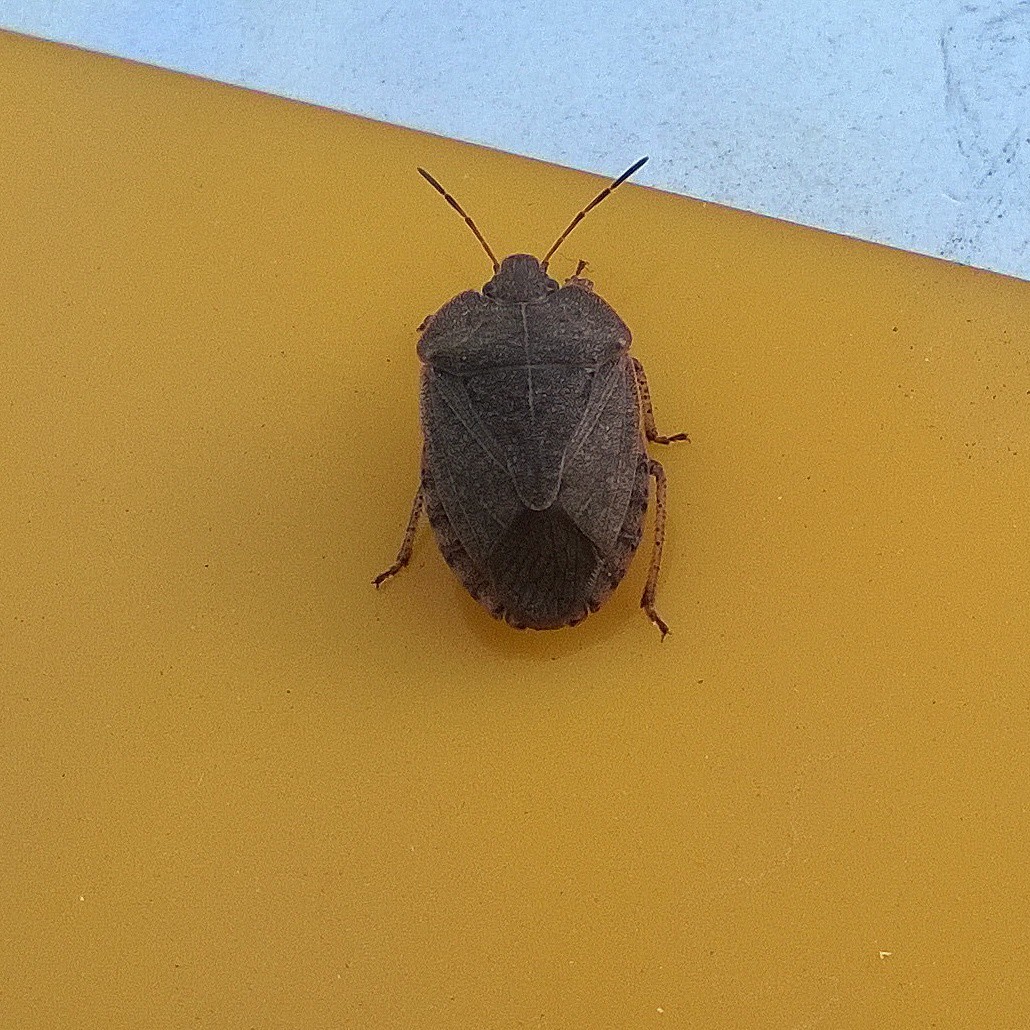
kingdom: Animalia
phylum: Arthropoda
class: Insecta
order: Hemiptera
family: Pentatomidae
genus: Menecles
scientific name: Menecles insertus
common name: Elf shoe stink bug
